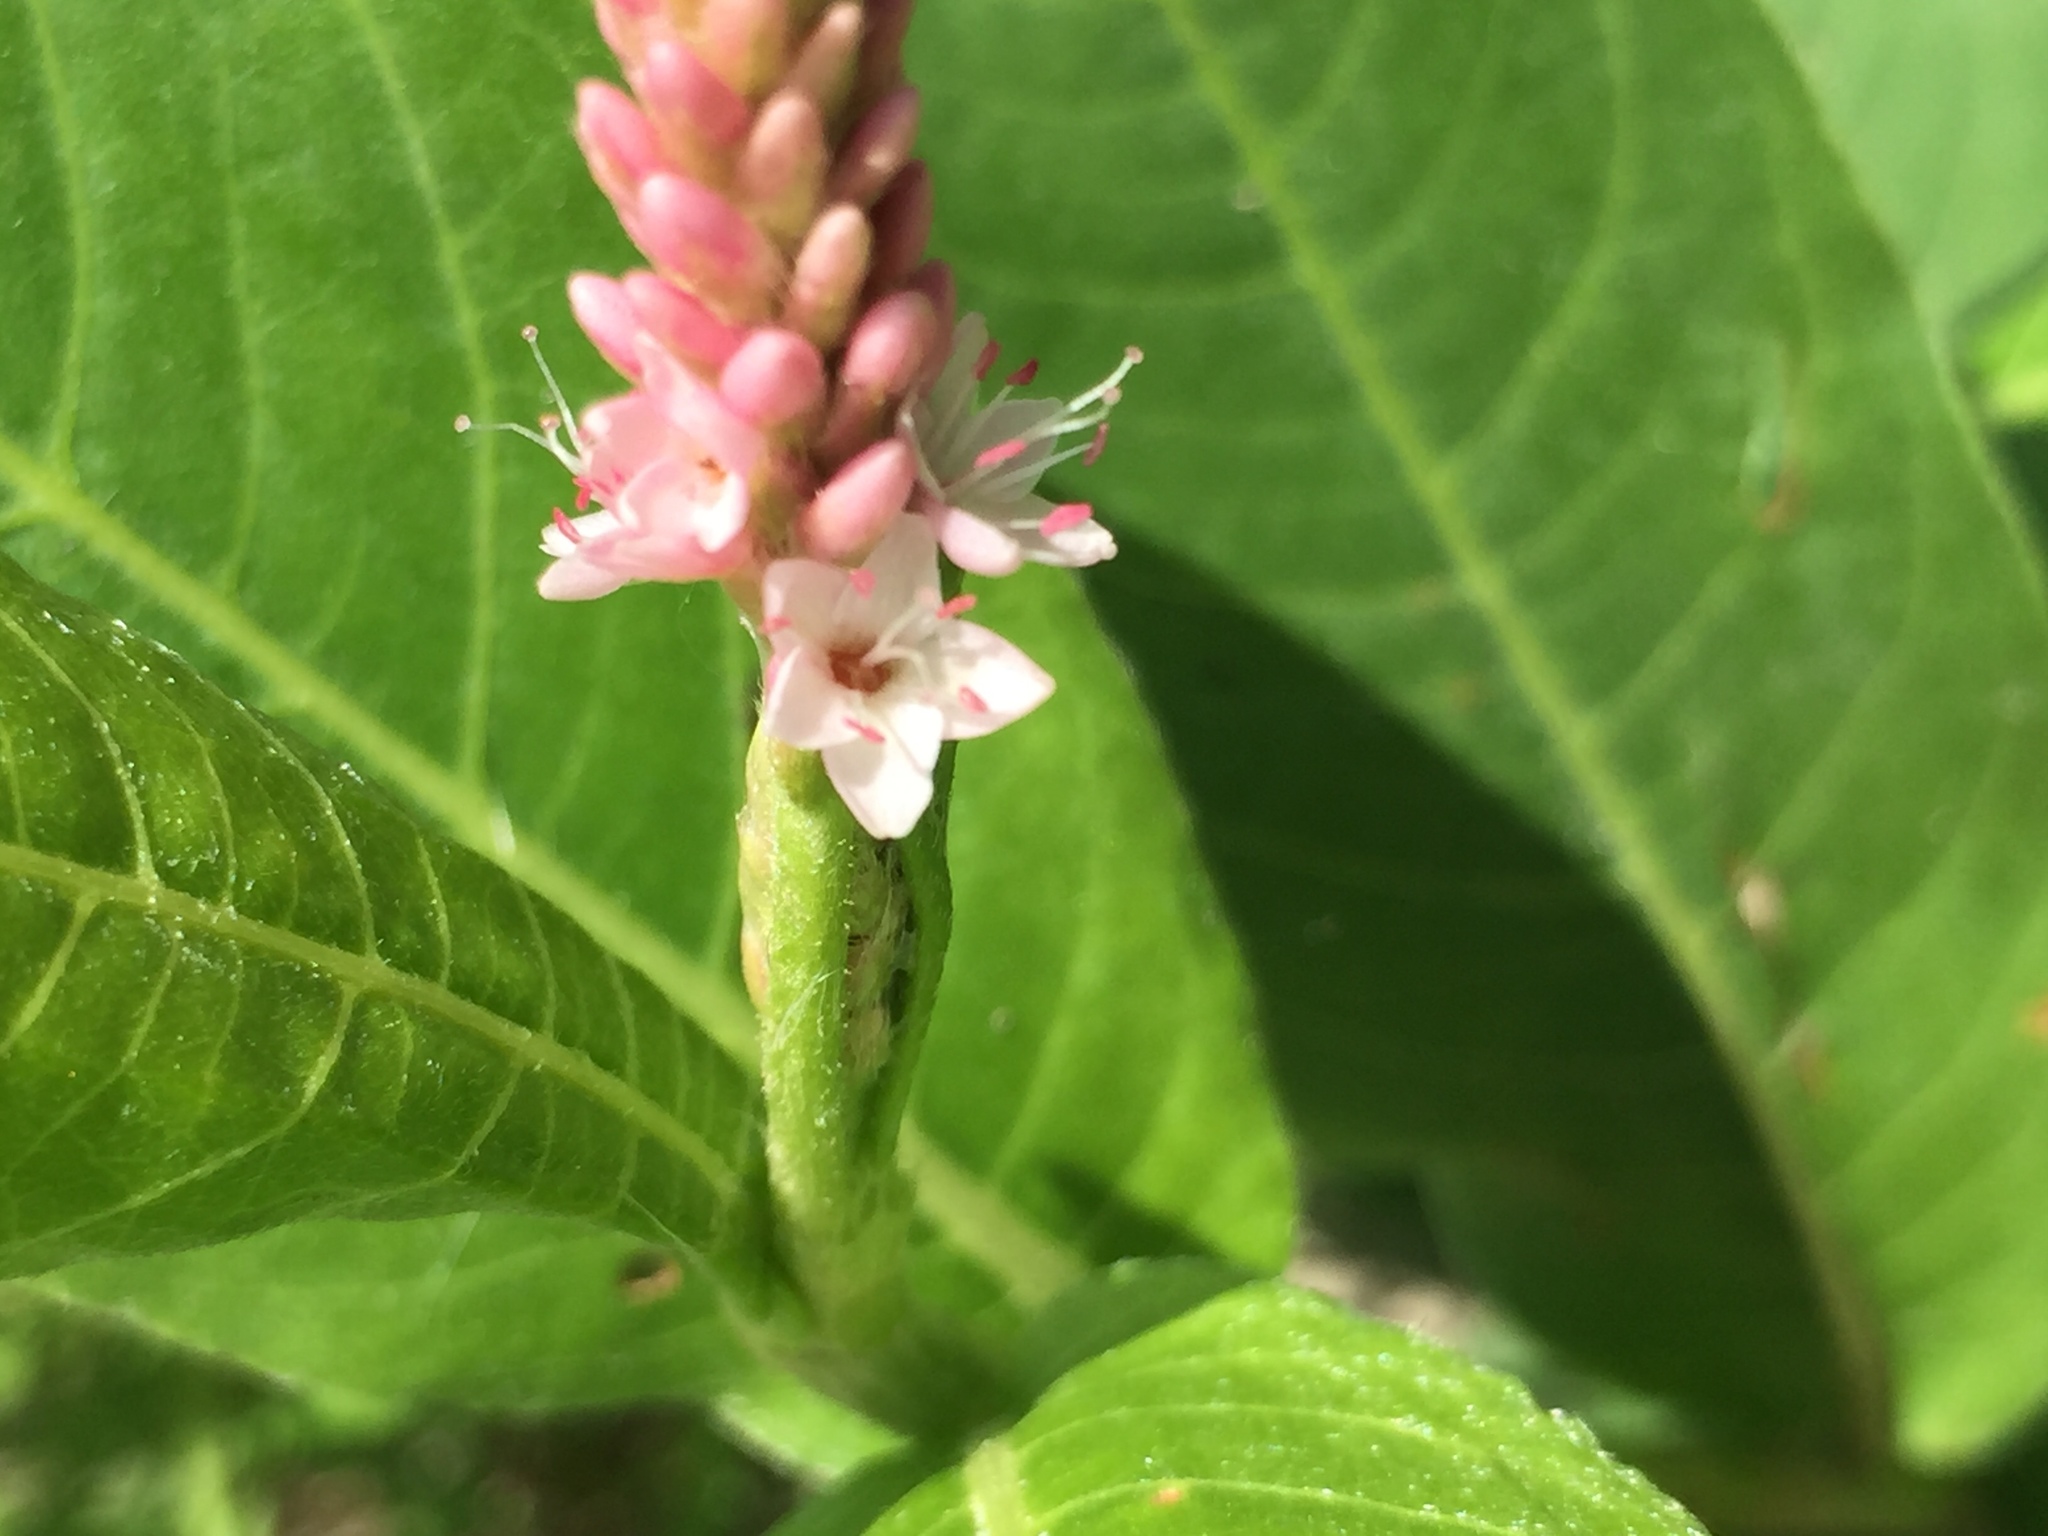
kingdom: Plantae
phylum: Tracheophyta
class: Magnoliopsida
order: Caryophyllales
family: Polygonaceae
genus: Persicaria
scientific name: Persicaria amphibia
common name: Amphibious bistort
